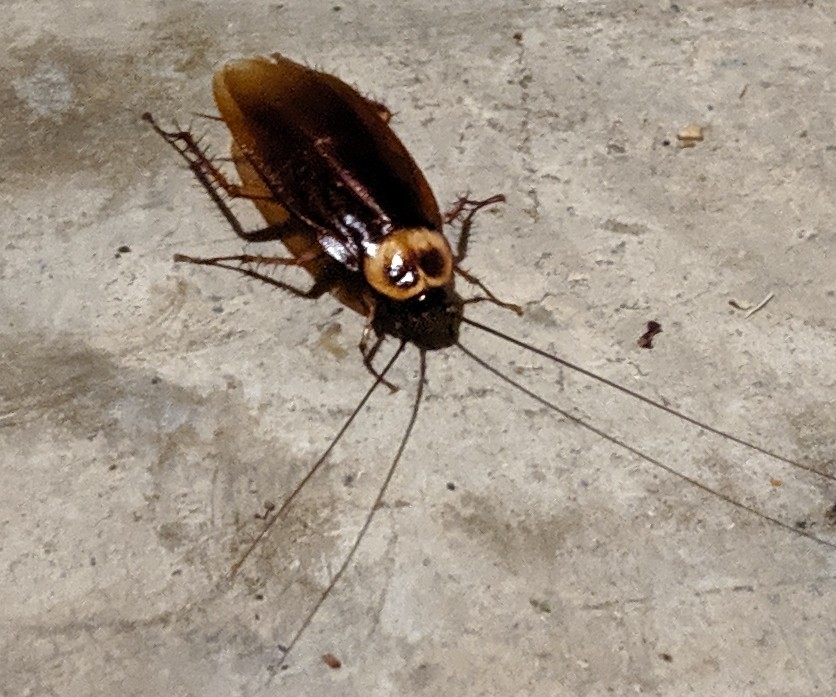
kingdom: Animalia
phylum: Arthropoda
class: Insecta
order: Blattodea
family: Blattidae
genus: Periplaneta
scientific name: Periplaneta americana
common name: American cockroach
